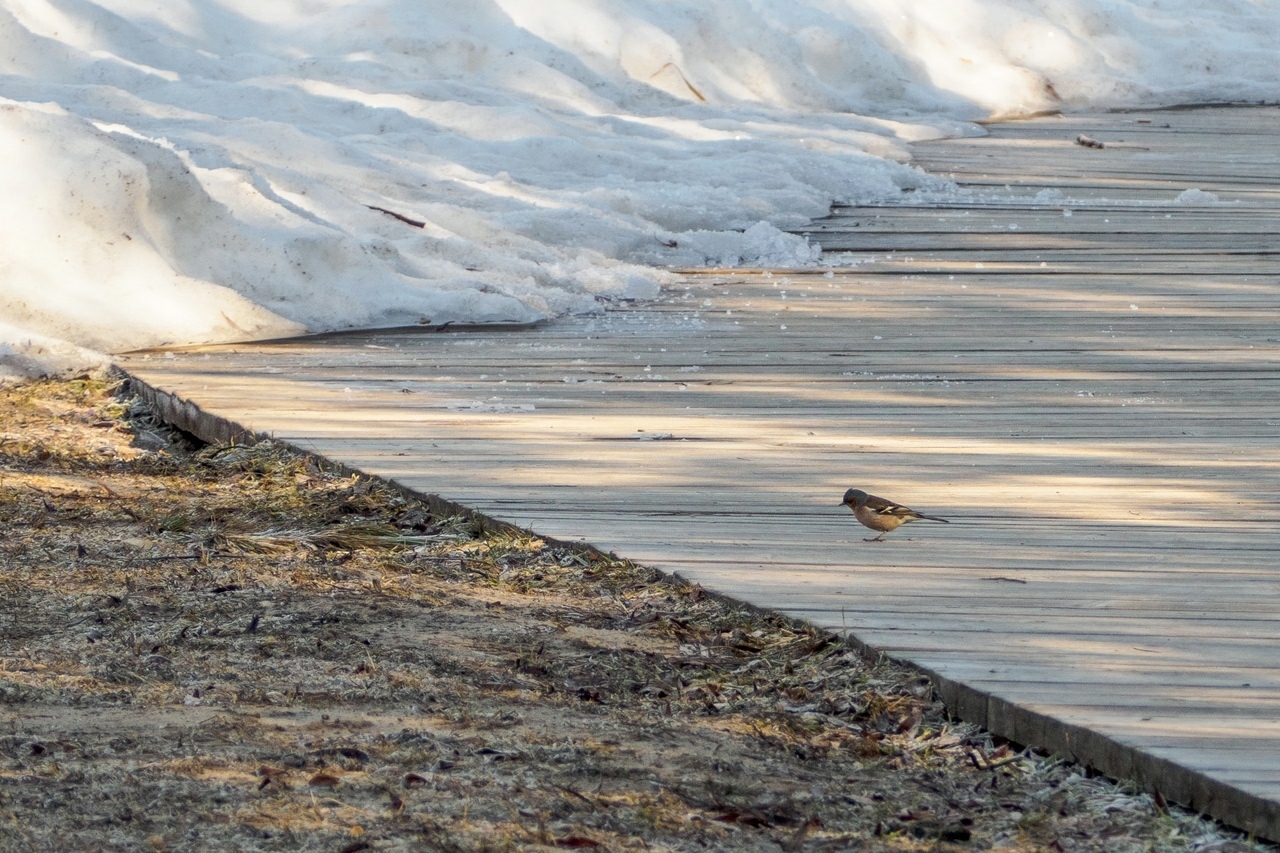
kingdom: Animalia
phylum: Chordata
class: Aves
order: Passeriformes
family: Fringillidae
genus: Fringilla
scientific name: Fringilla coelebs
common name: Common chaffinch
